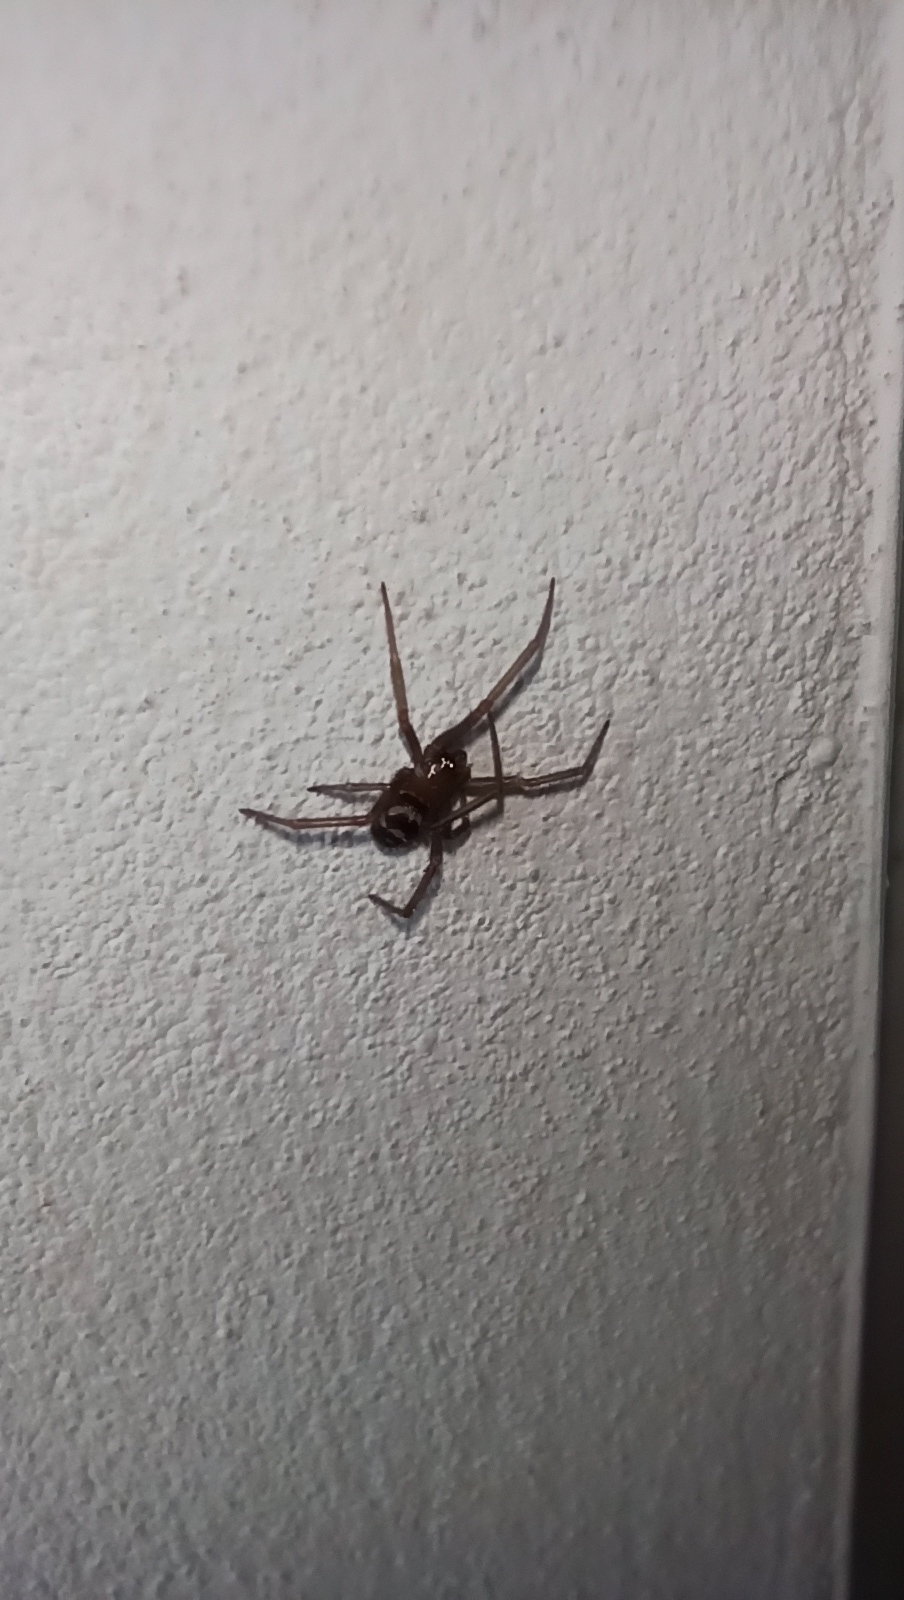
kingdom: Animalia
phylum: Arthropoda
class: Arachnida
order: Araneae
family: Theridiidae
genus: Steatoda
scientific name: Steatoda grossa
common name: False black widow
